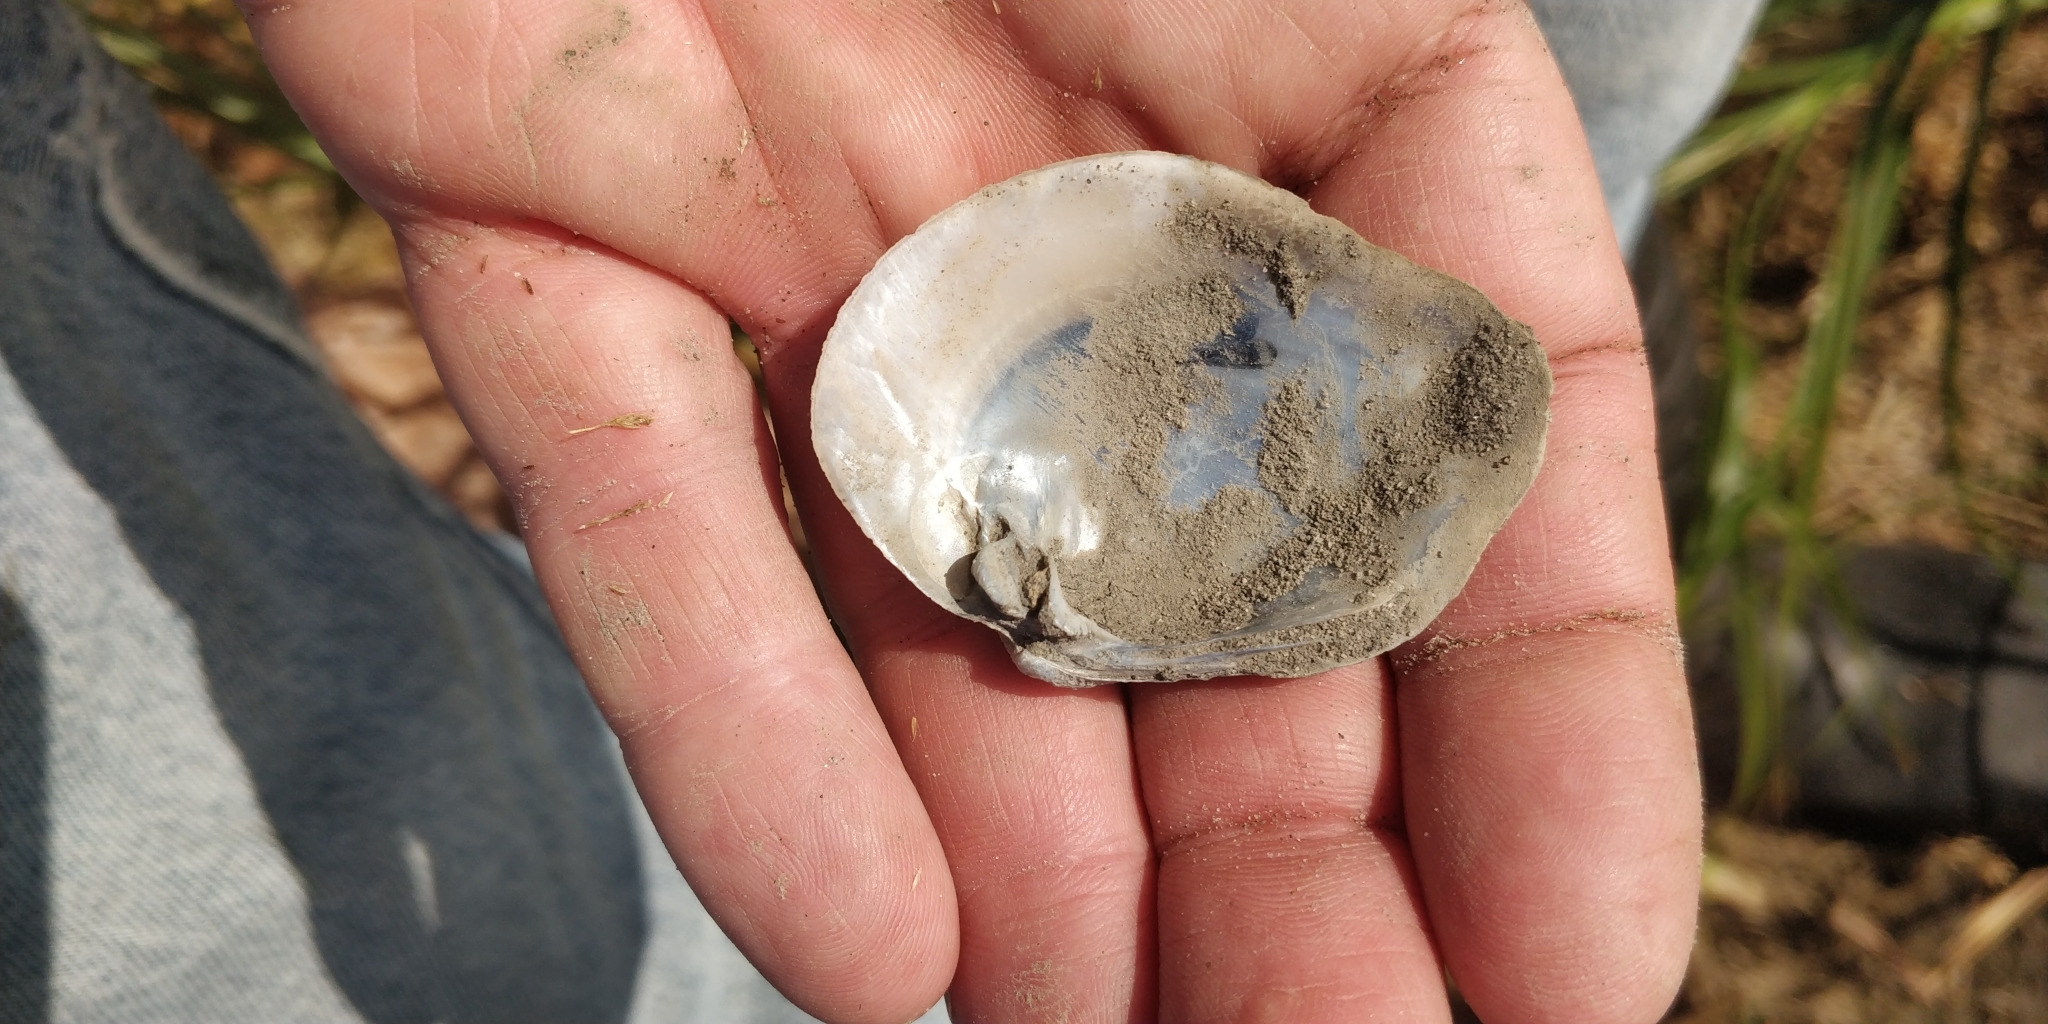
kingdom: Animalia
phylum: Mollusca
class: Bivalvia
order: Unionida
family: Unionidae
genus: Quadrula
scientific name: Quadrula quadrula
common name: Mapleleaf
